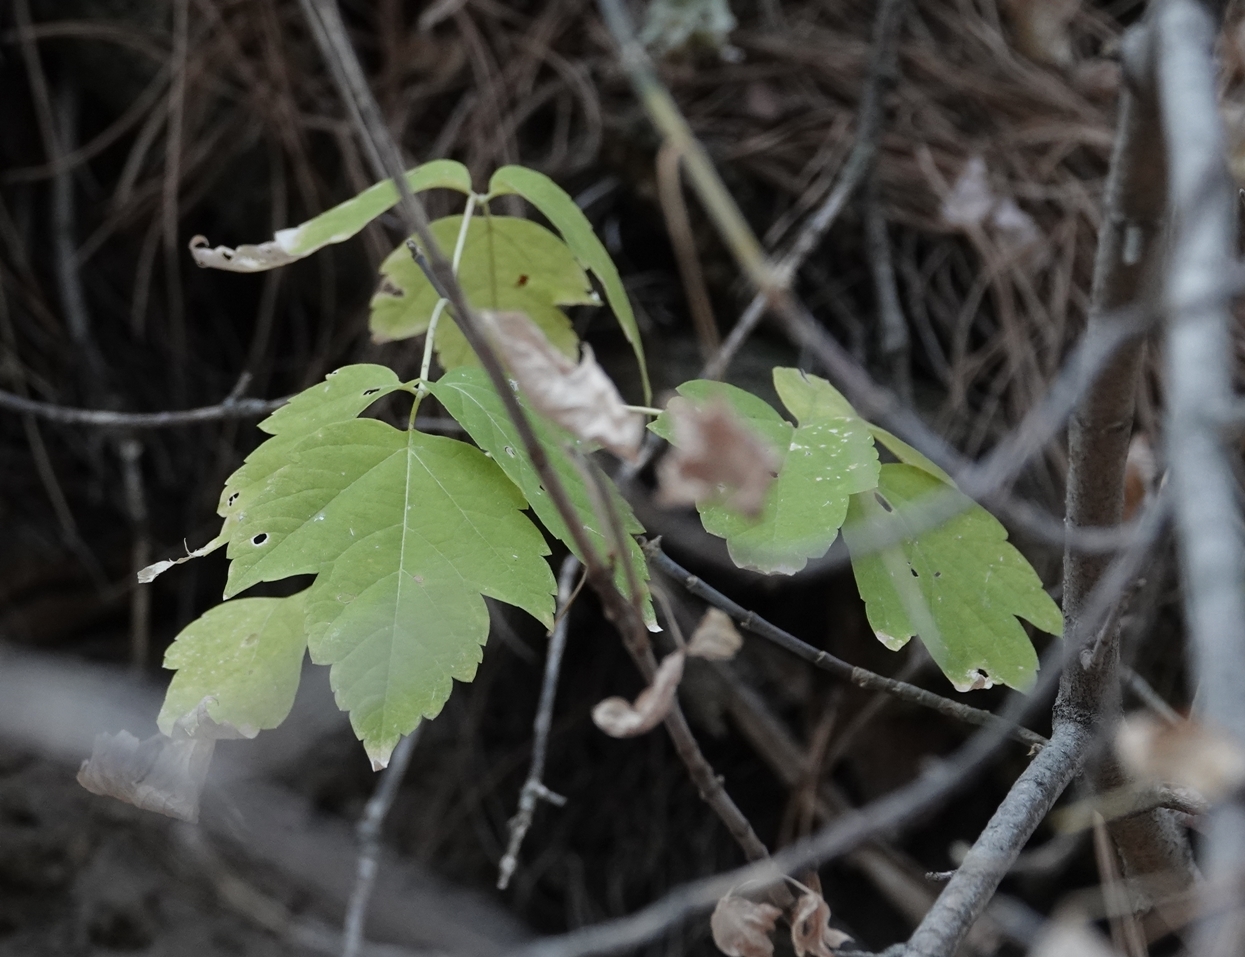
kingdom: Plantae
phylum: Tracheophyta
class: Magnoliopsida
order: Sapindales
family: Sapindaceae
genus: Acer
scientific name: Acer negundo
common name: Ashleaf maple
